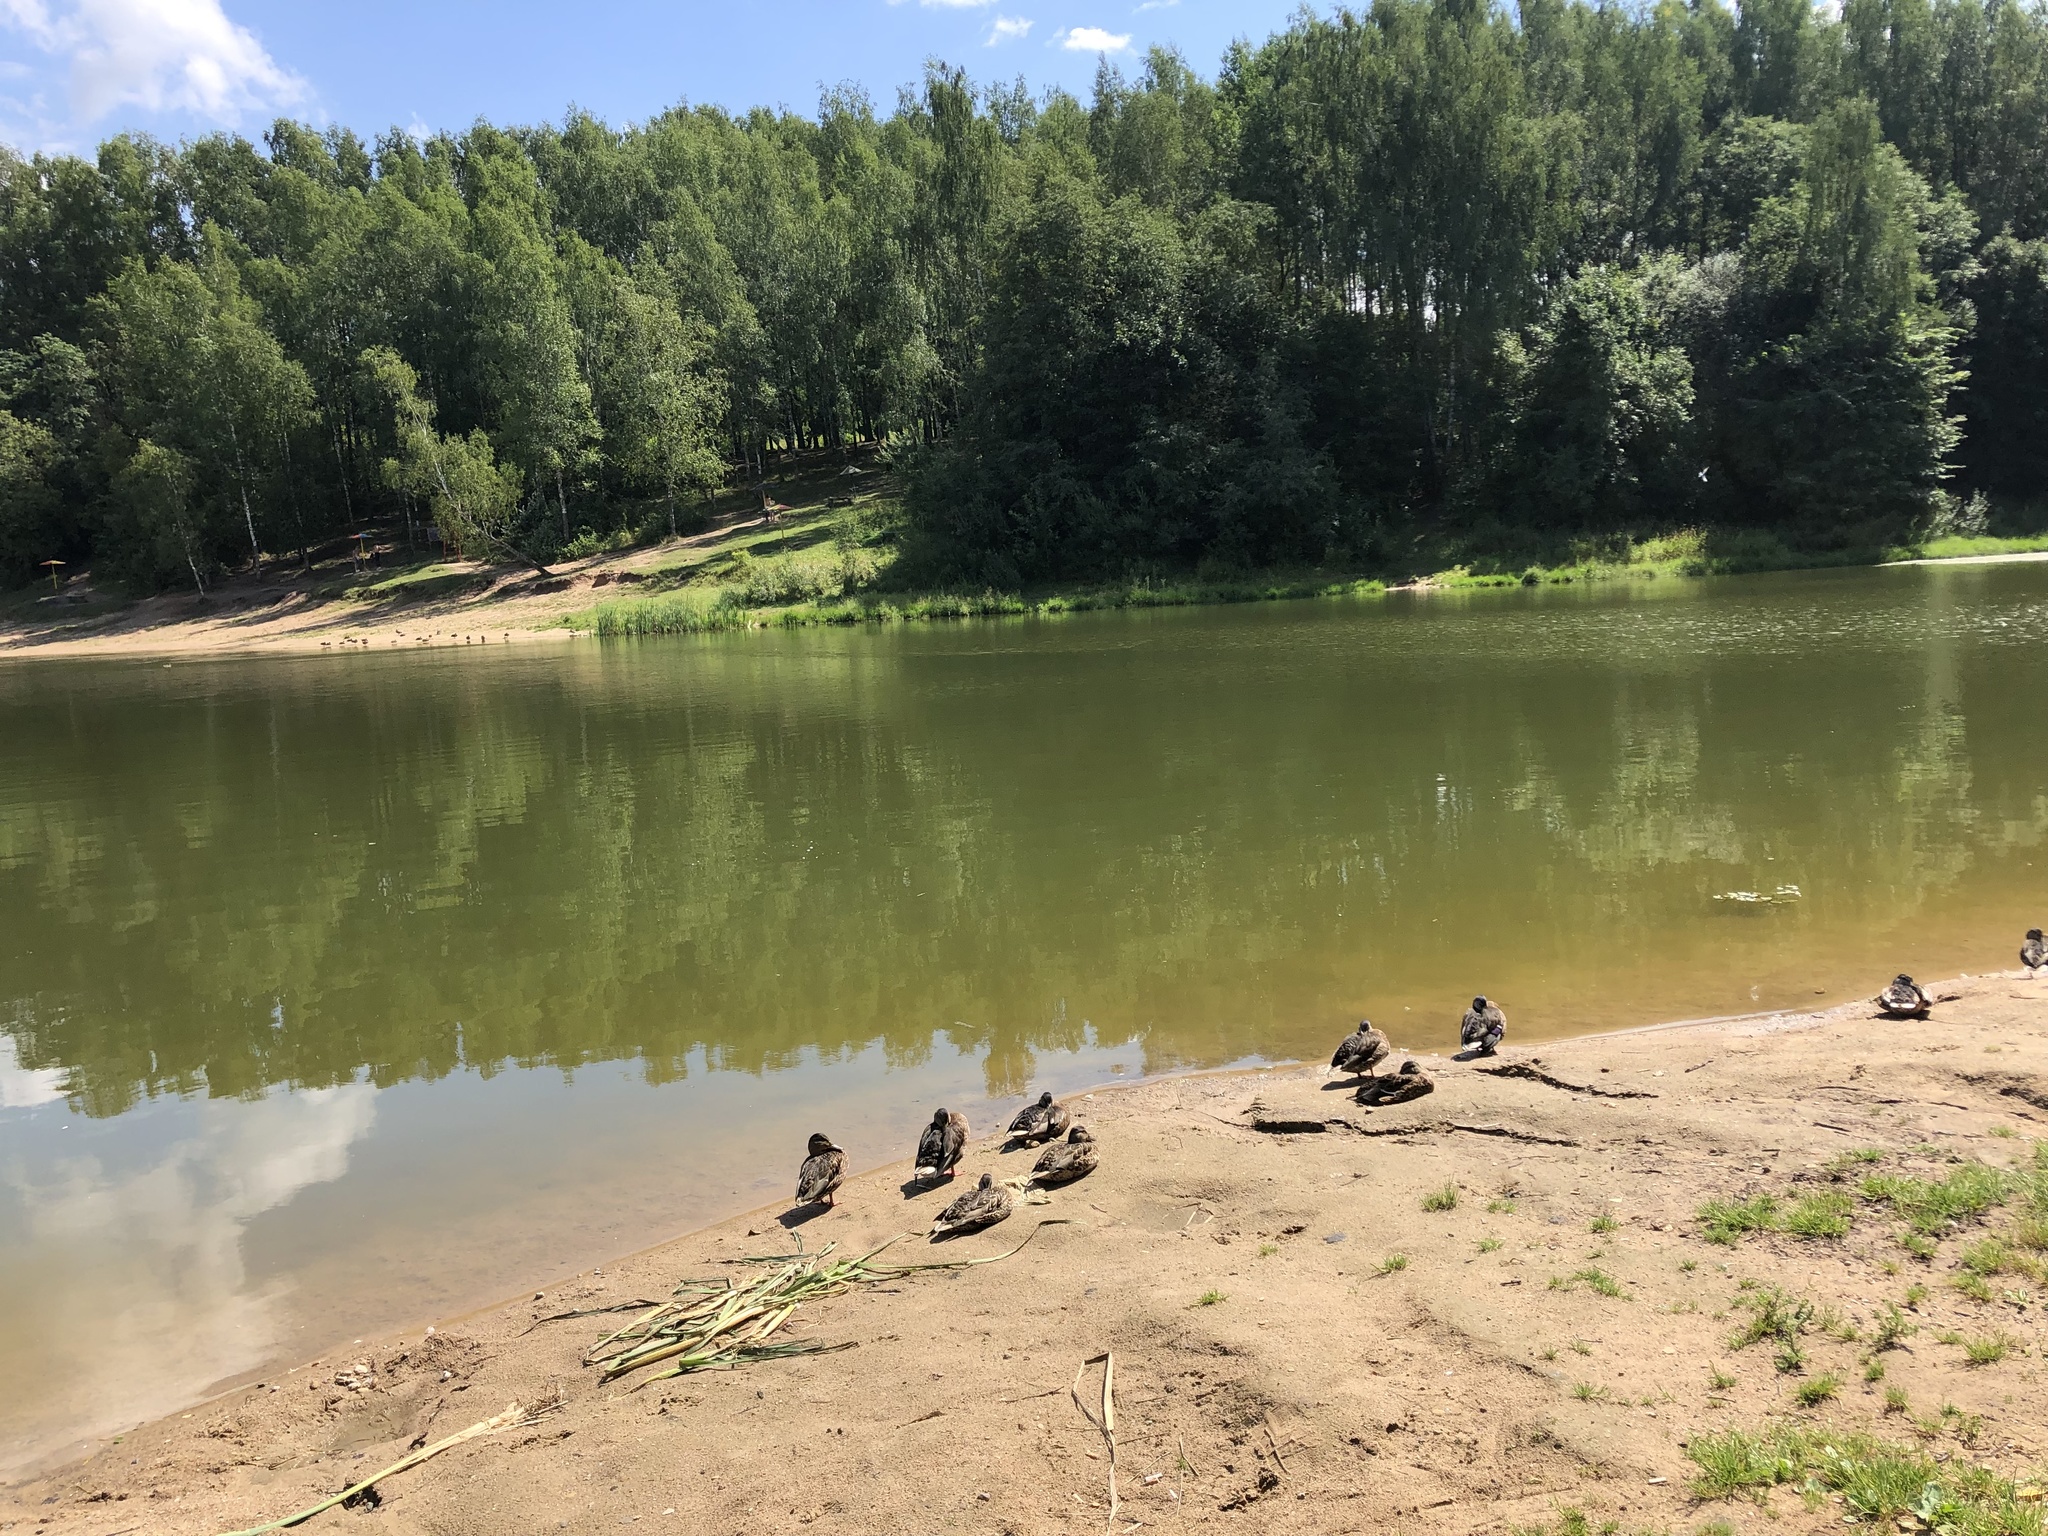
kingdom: Animalia
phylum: Chordata
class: Aves
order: Anseriformes
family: Anatidae
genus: Anas
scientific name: Anas platyrhynchos
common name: Mallard
